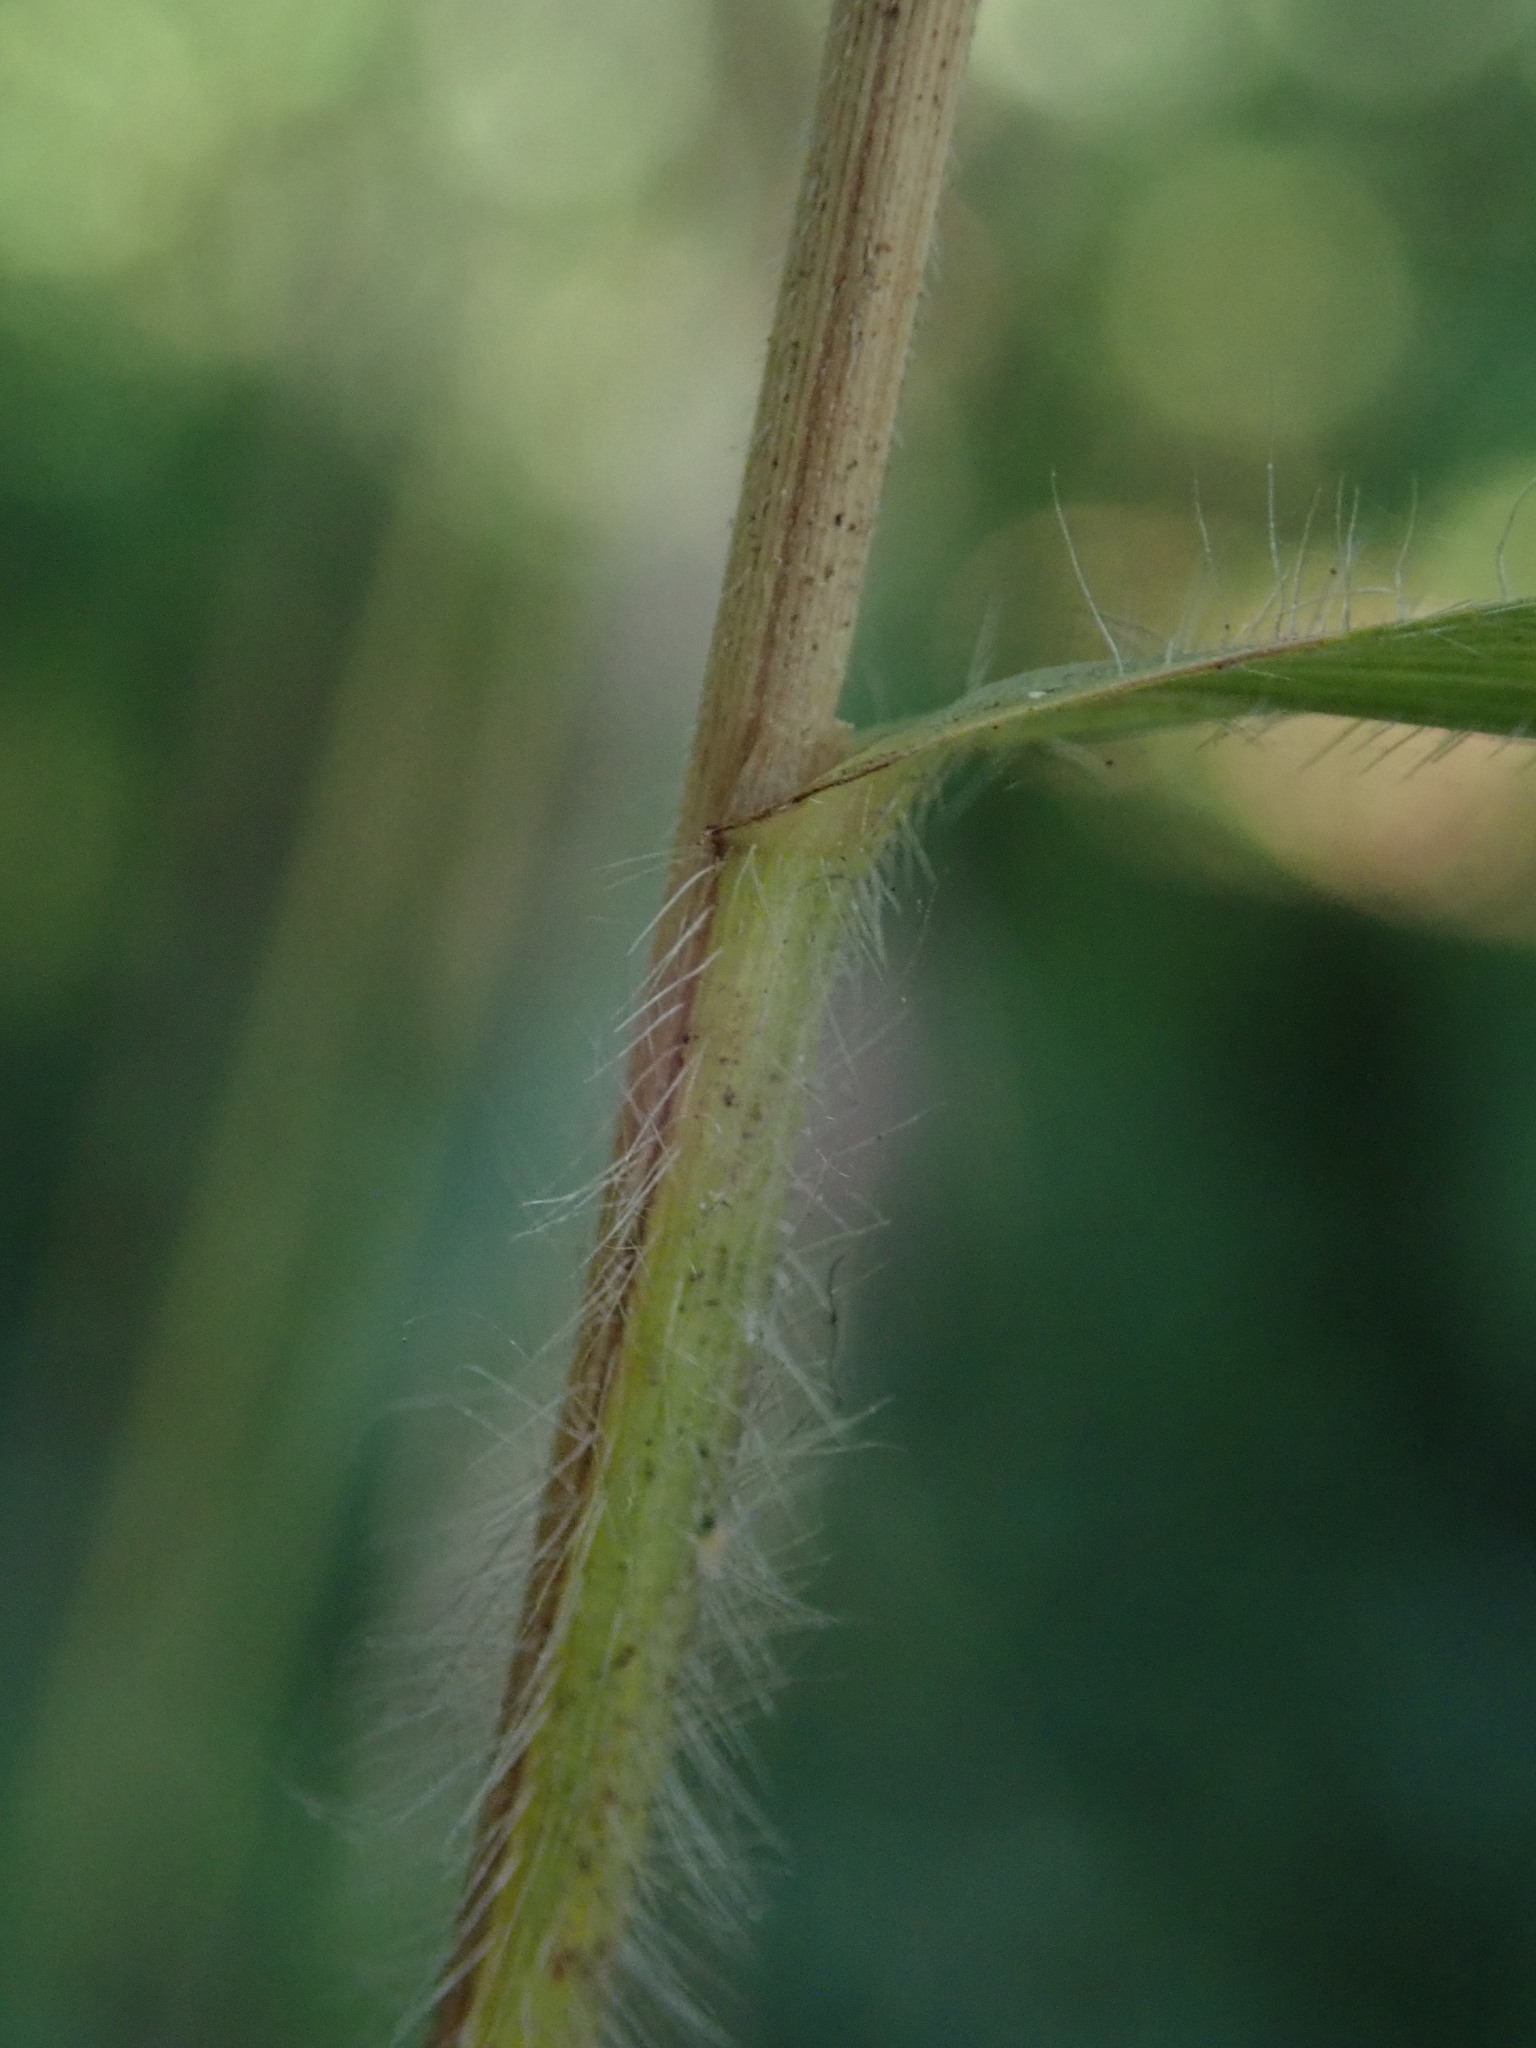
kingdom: Plantae
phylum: Tracheophyta
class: Liliopsida
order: Poales
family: Poaceae
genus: Bromus
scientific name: Bromus ramosus
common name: Hairy brome
